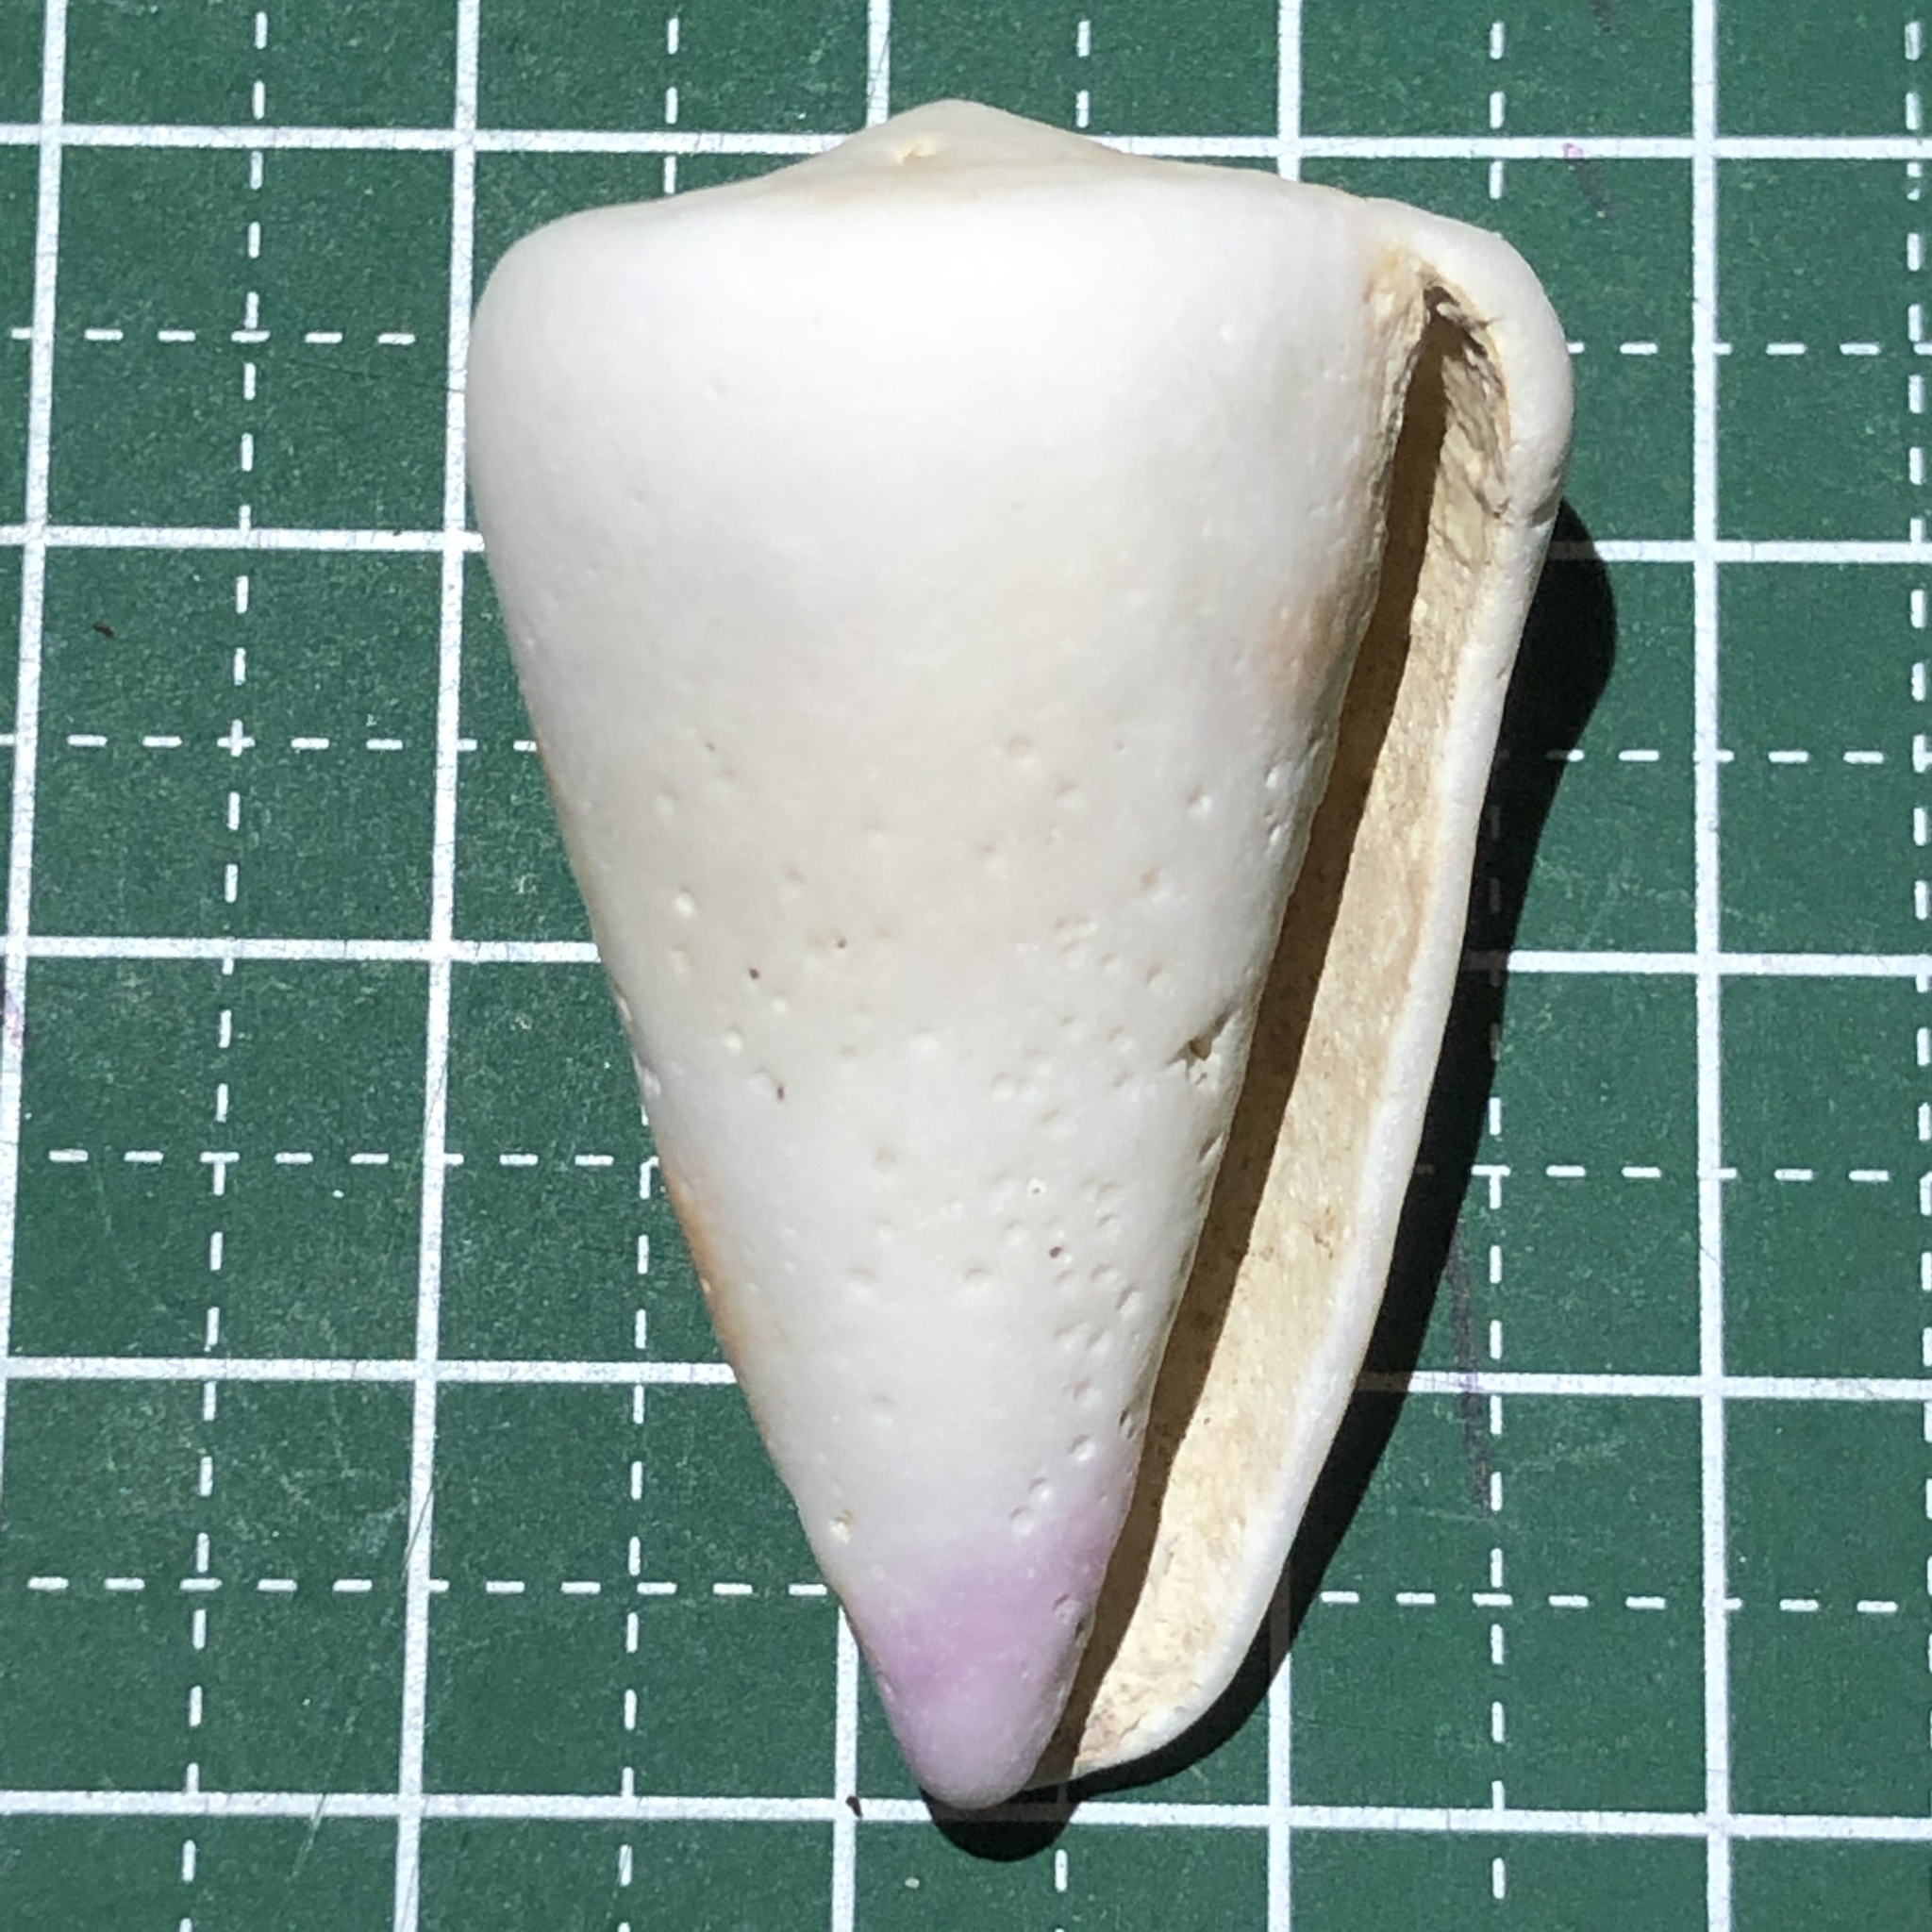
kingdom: Animalia
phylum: Mollusca
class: Gastropoda
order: Neogastropoda
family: Conidae
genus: Conus
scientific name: Conus tessulatus
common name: Tessellate cone
